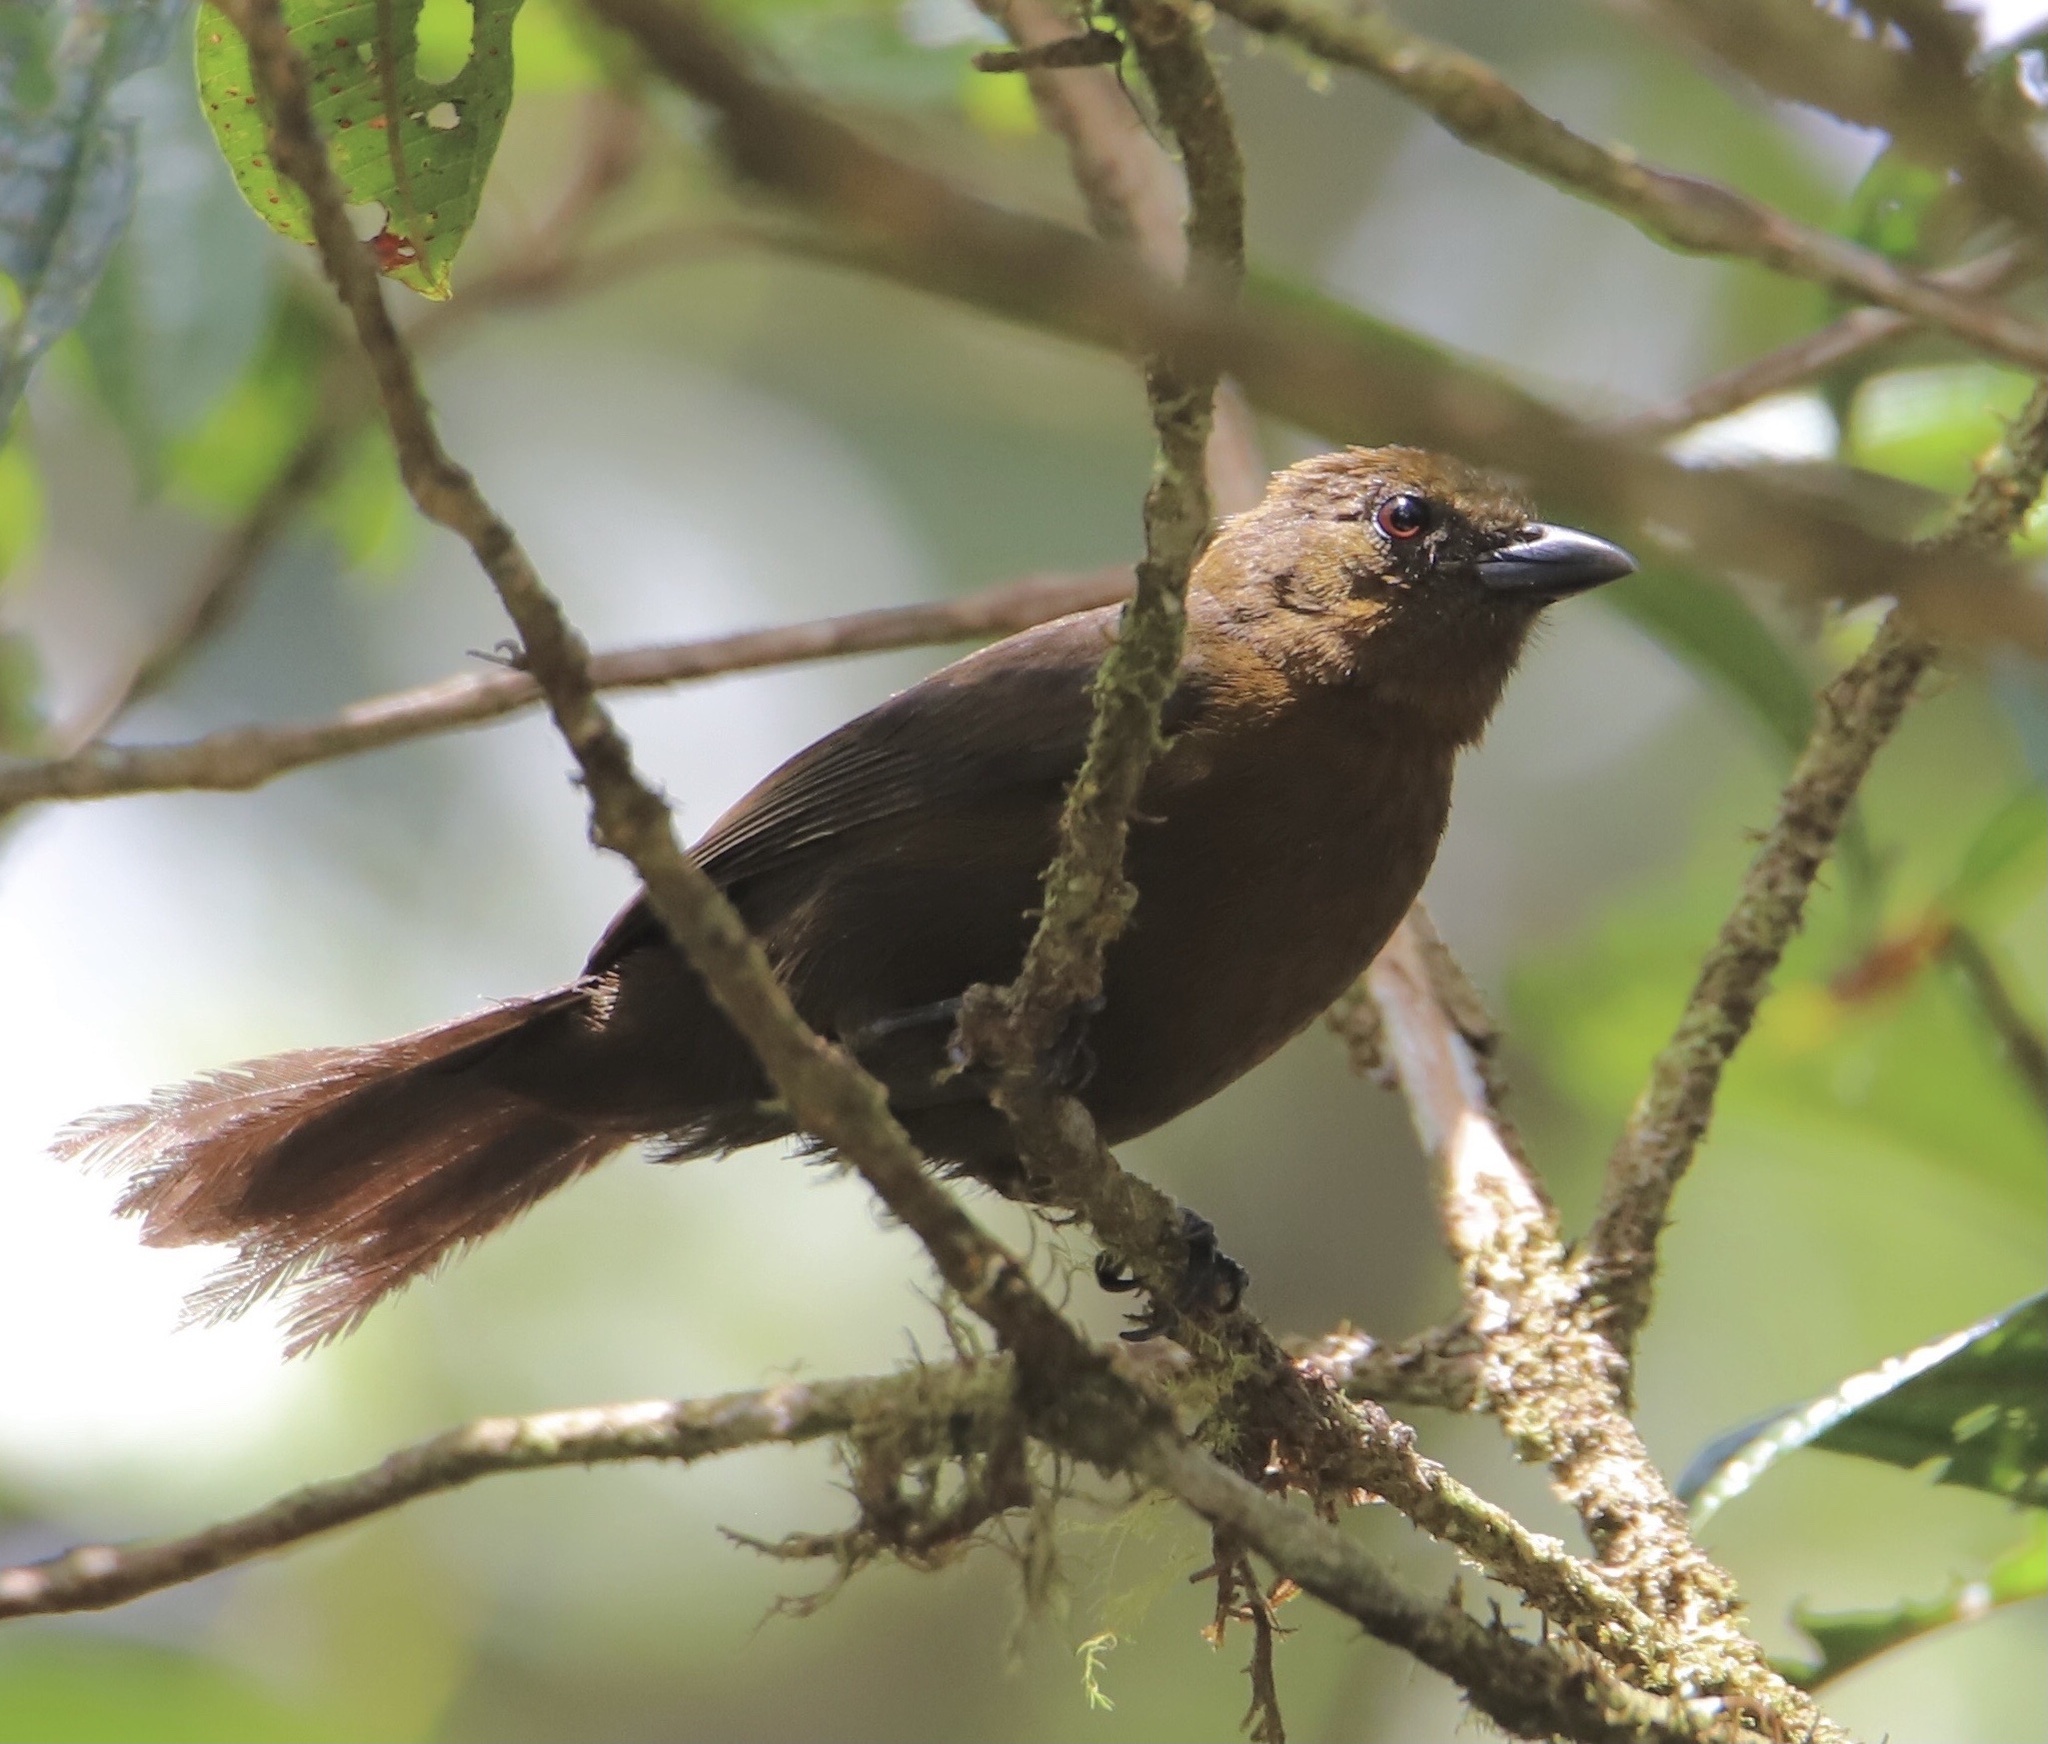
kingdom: Animalia
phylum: Chordata
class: Aves
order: Passeriformes
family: Thraupidae
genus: Tachyphonus
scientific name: Tachyphonus delatrii
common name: Tawny-crested tanager
